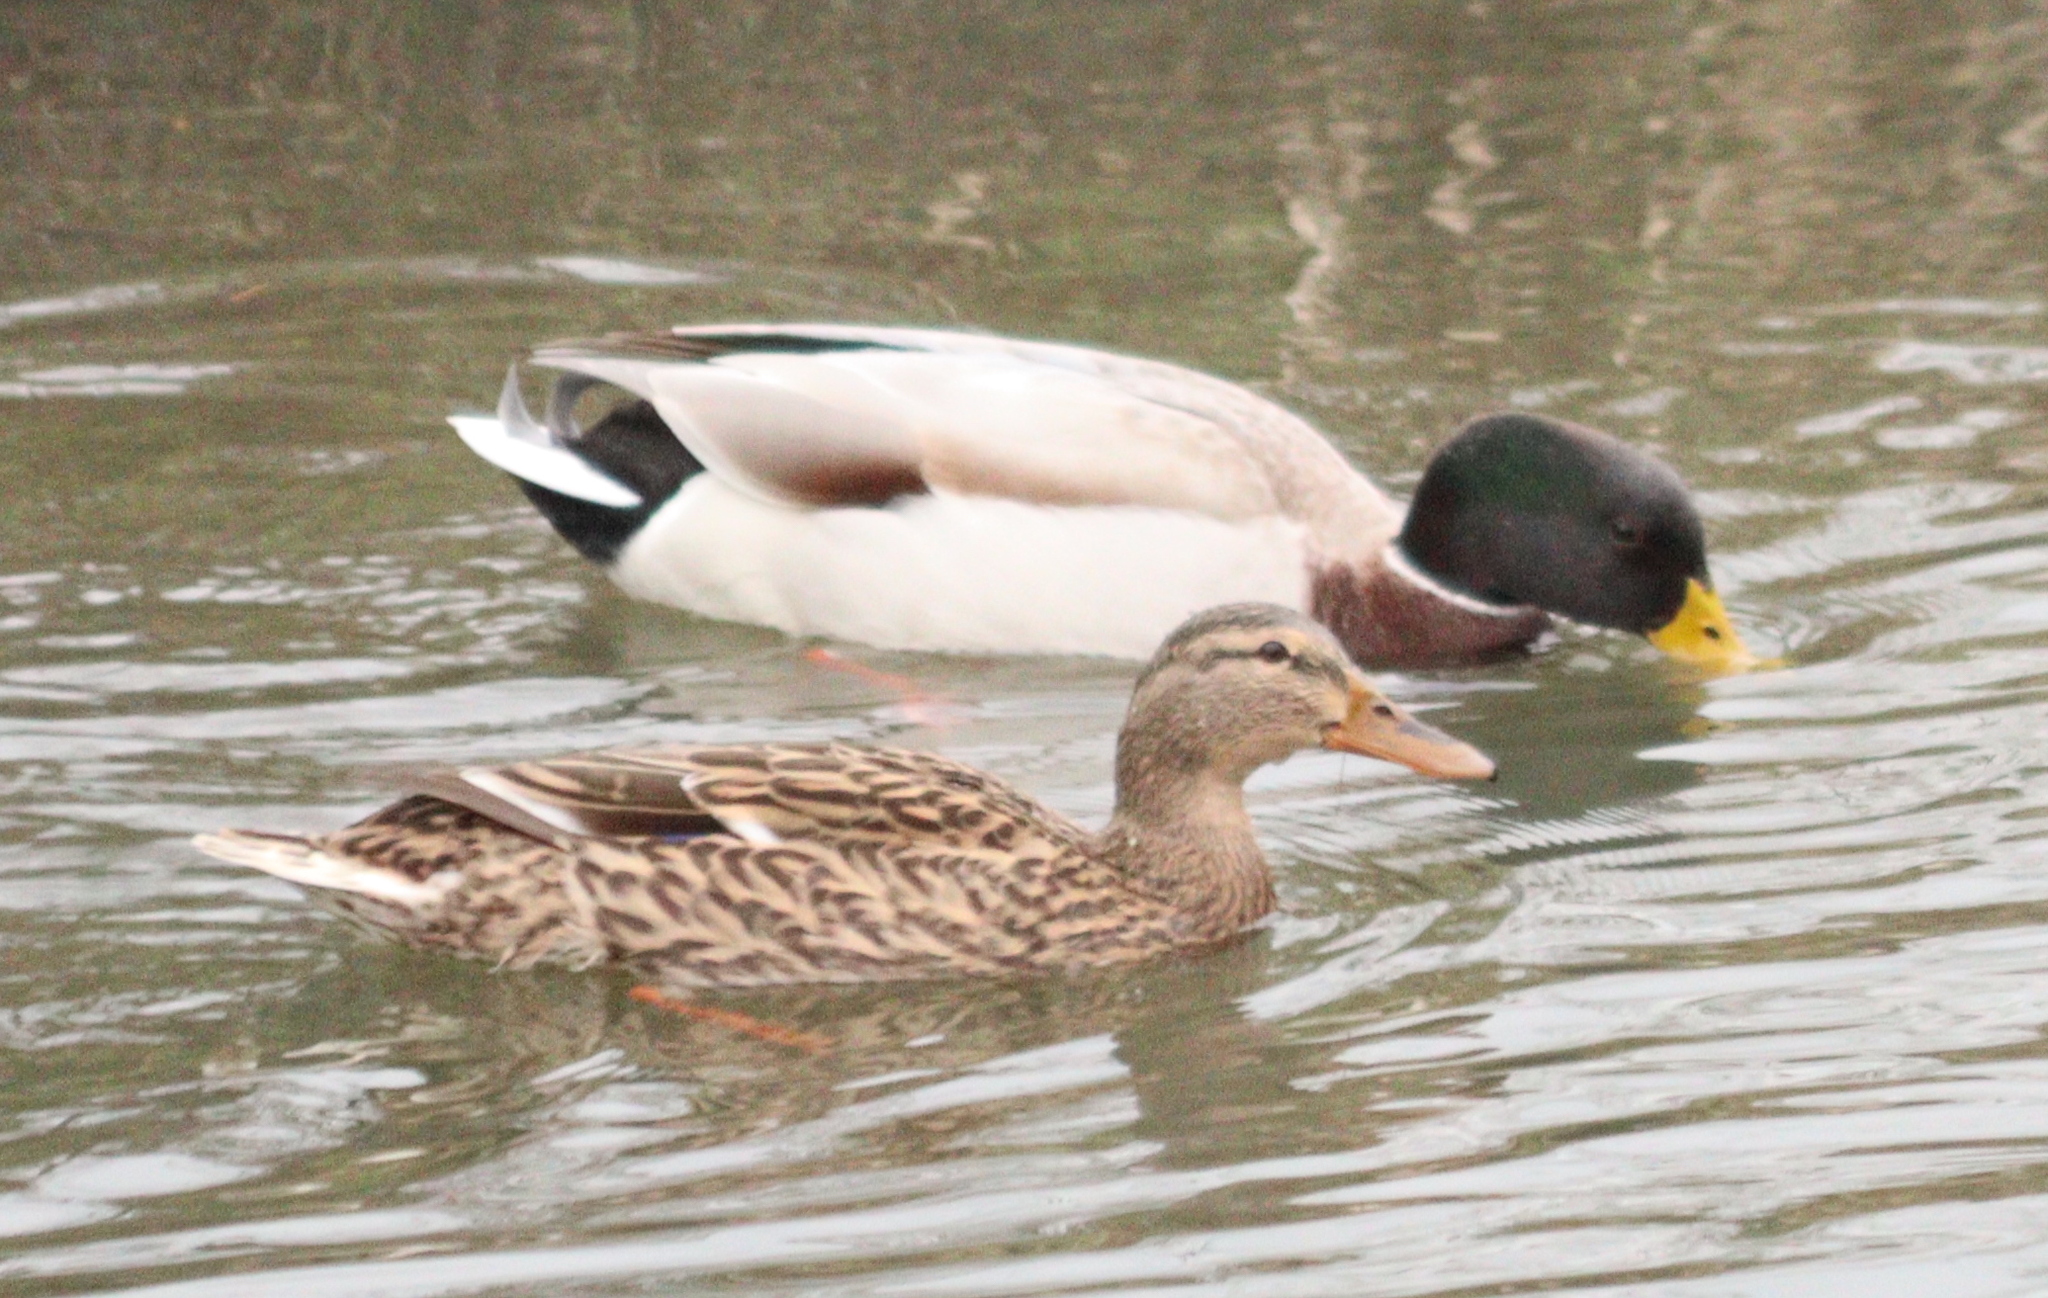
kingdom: Animalia
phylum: Chordata
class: Aves
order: Anseriformes
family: Anatidae
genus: Anas
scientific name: Anas platyrhynchos
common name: Mallard
